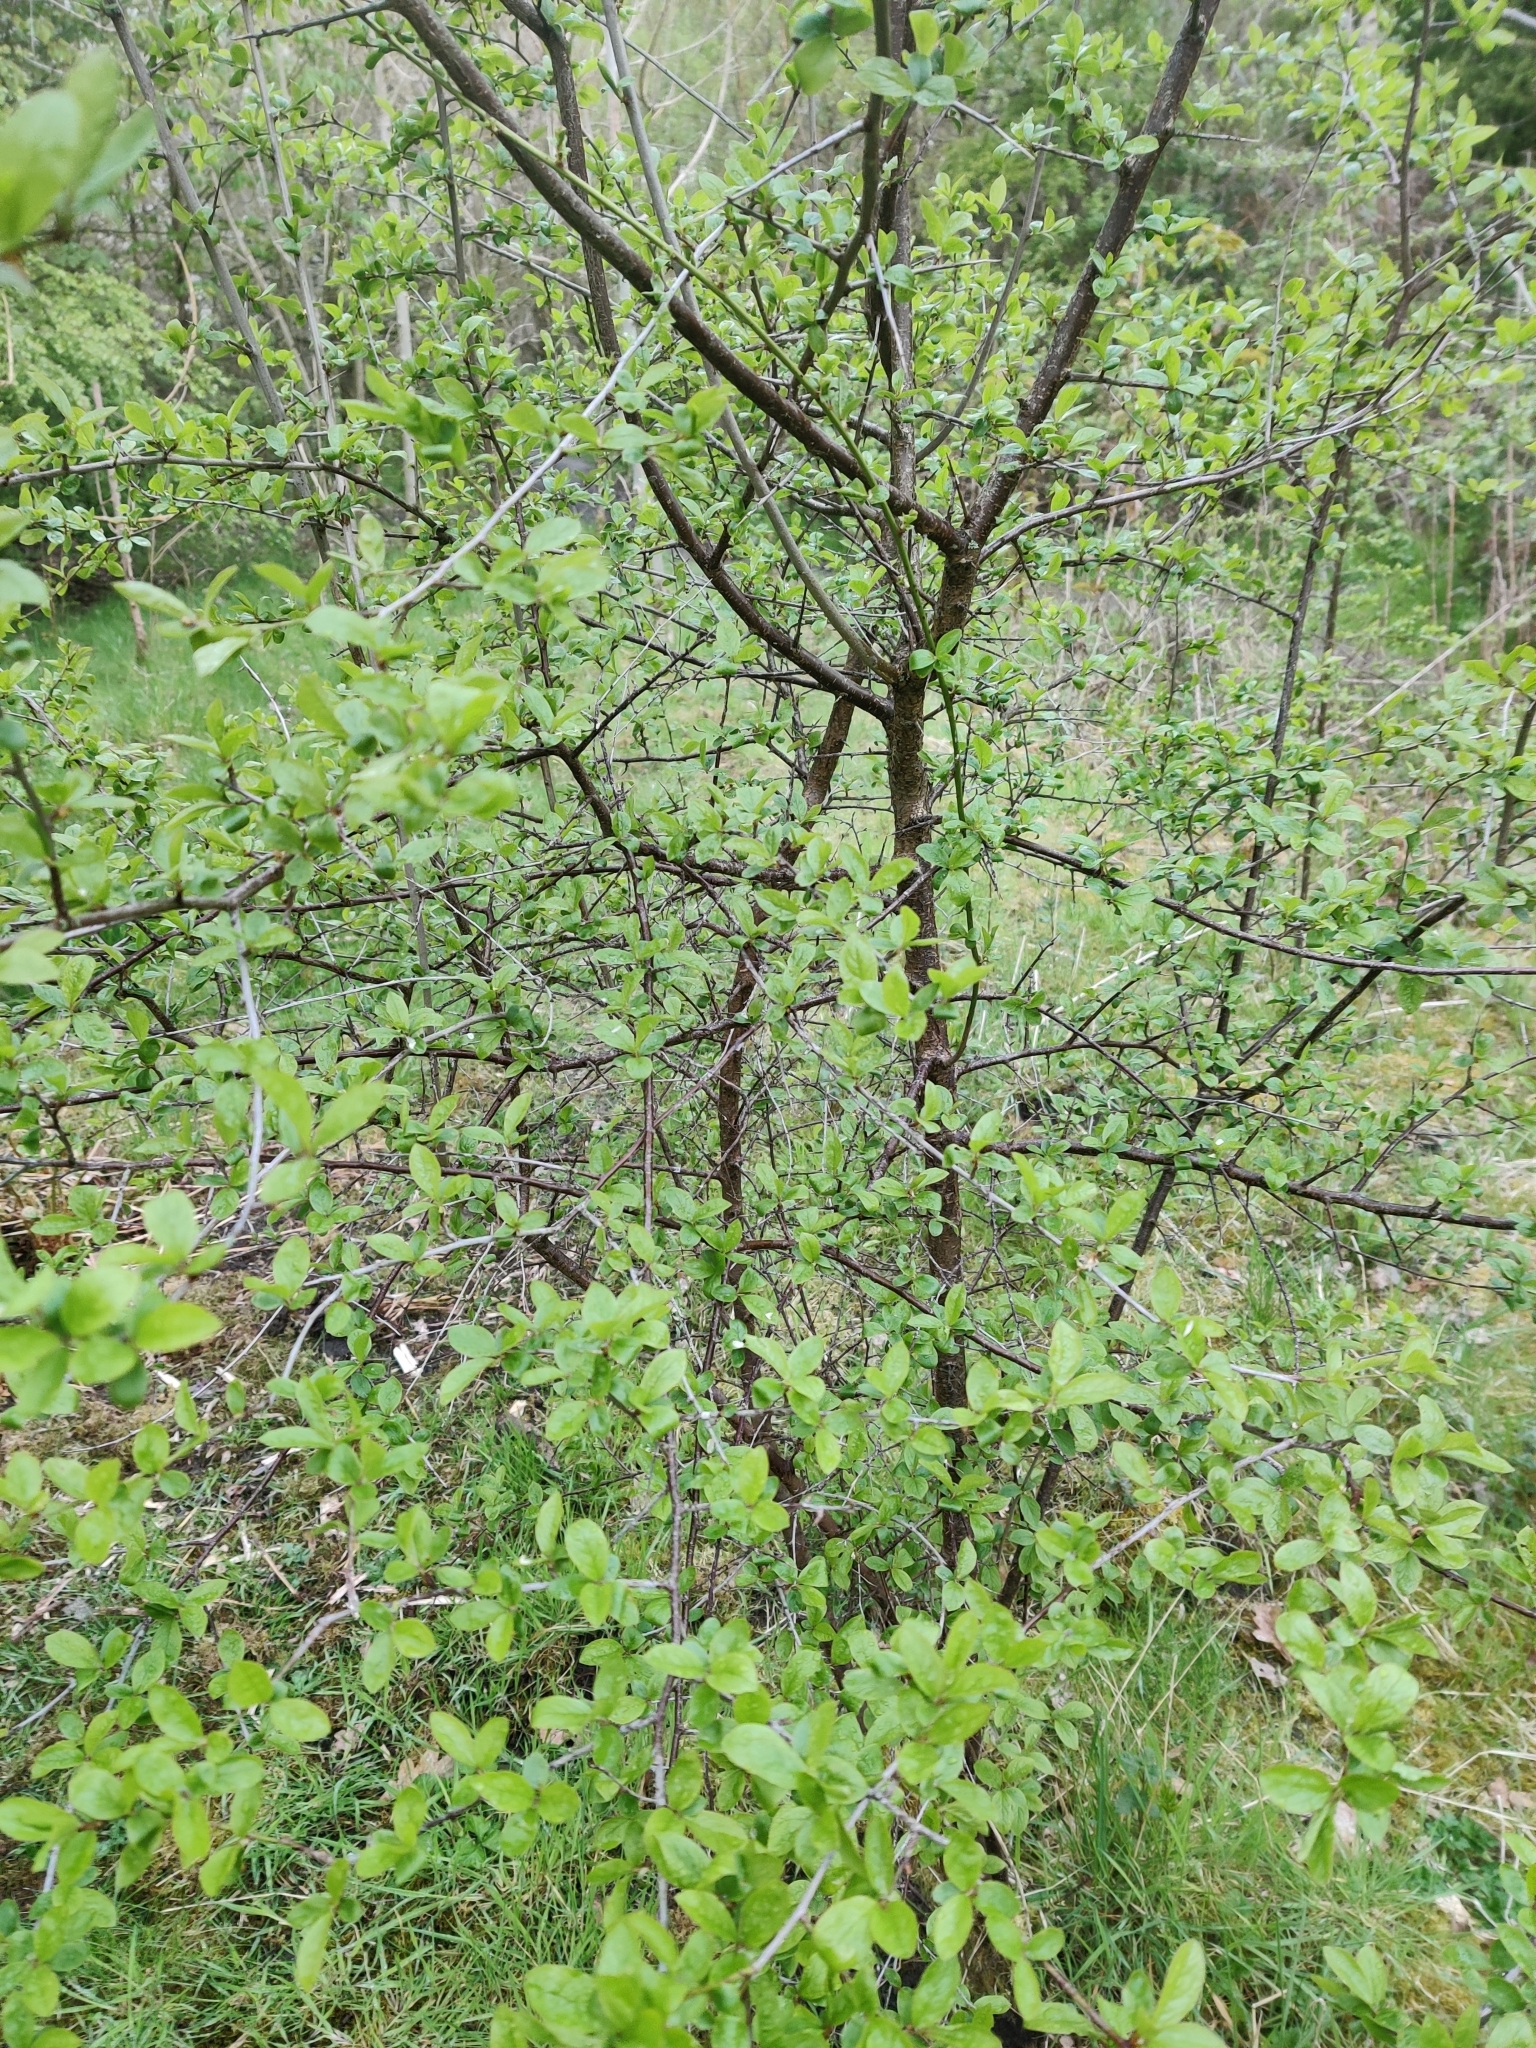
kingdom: Plantae
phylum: Tracheophyta
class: Magnoliopsida
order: Rosales
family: Rosaceae
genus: Prunus
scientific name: Prunus spinosa
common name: Blackthorn
